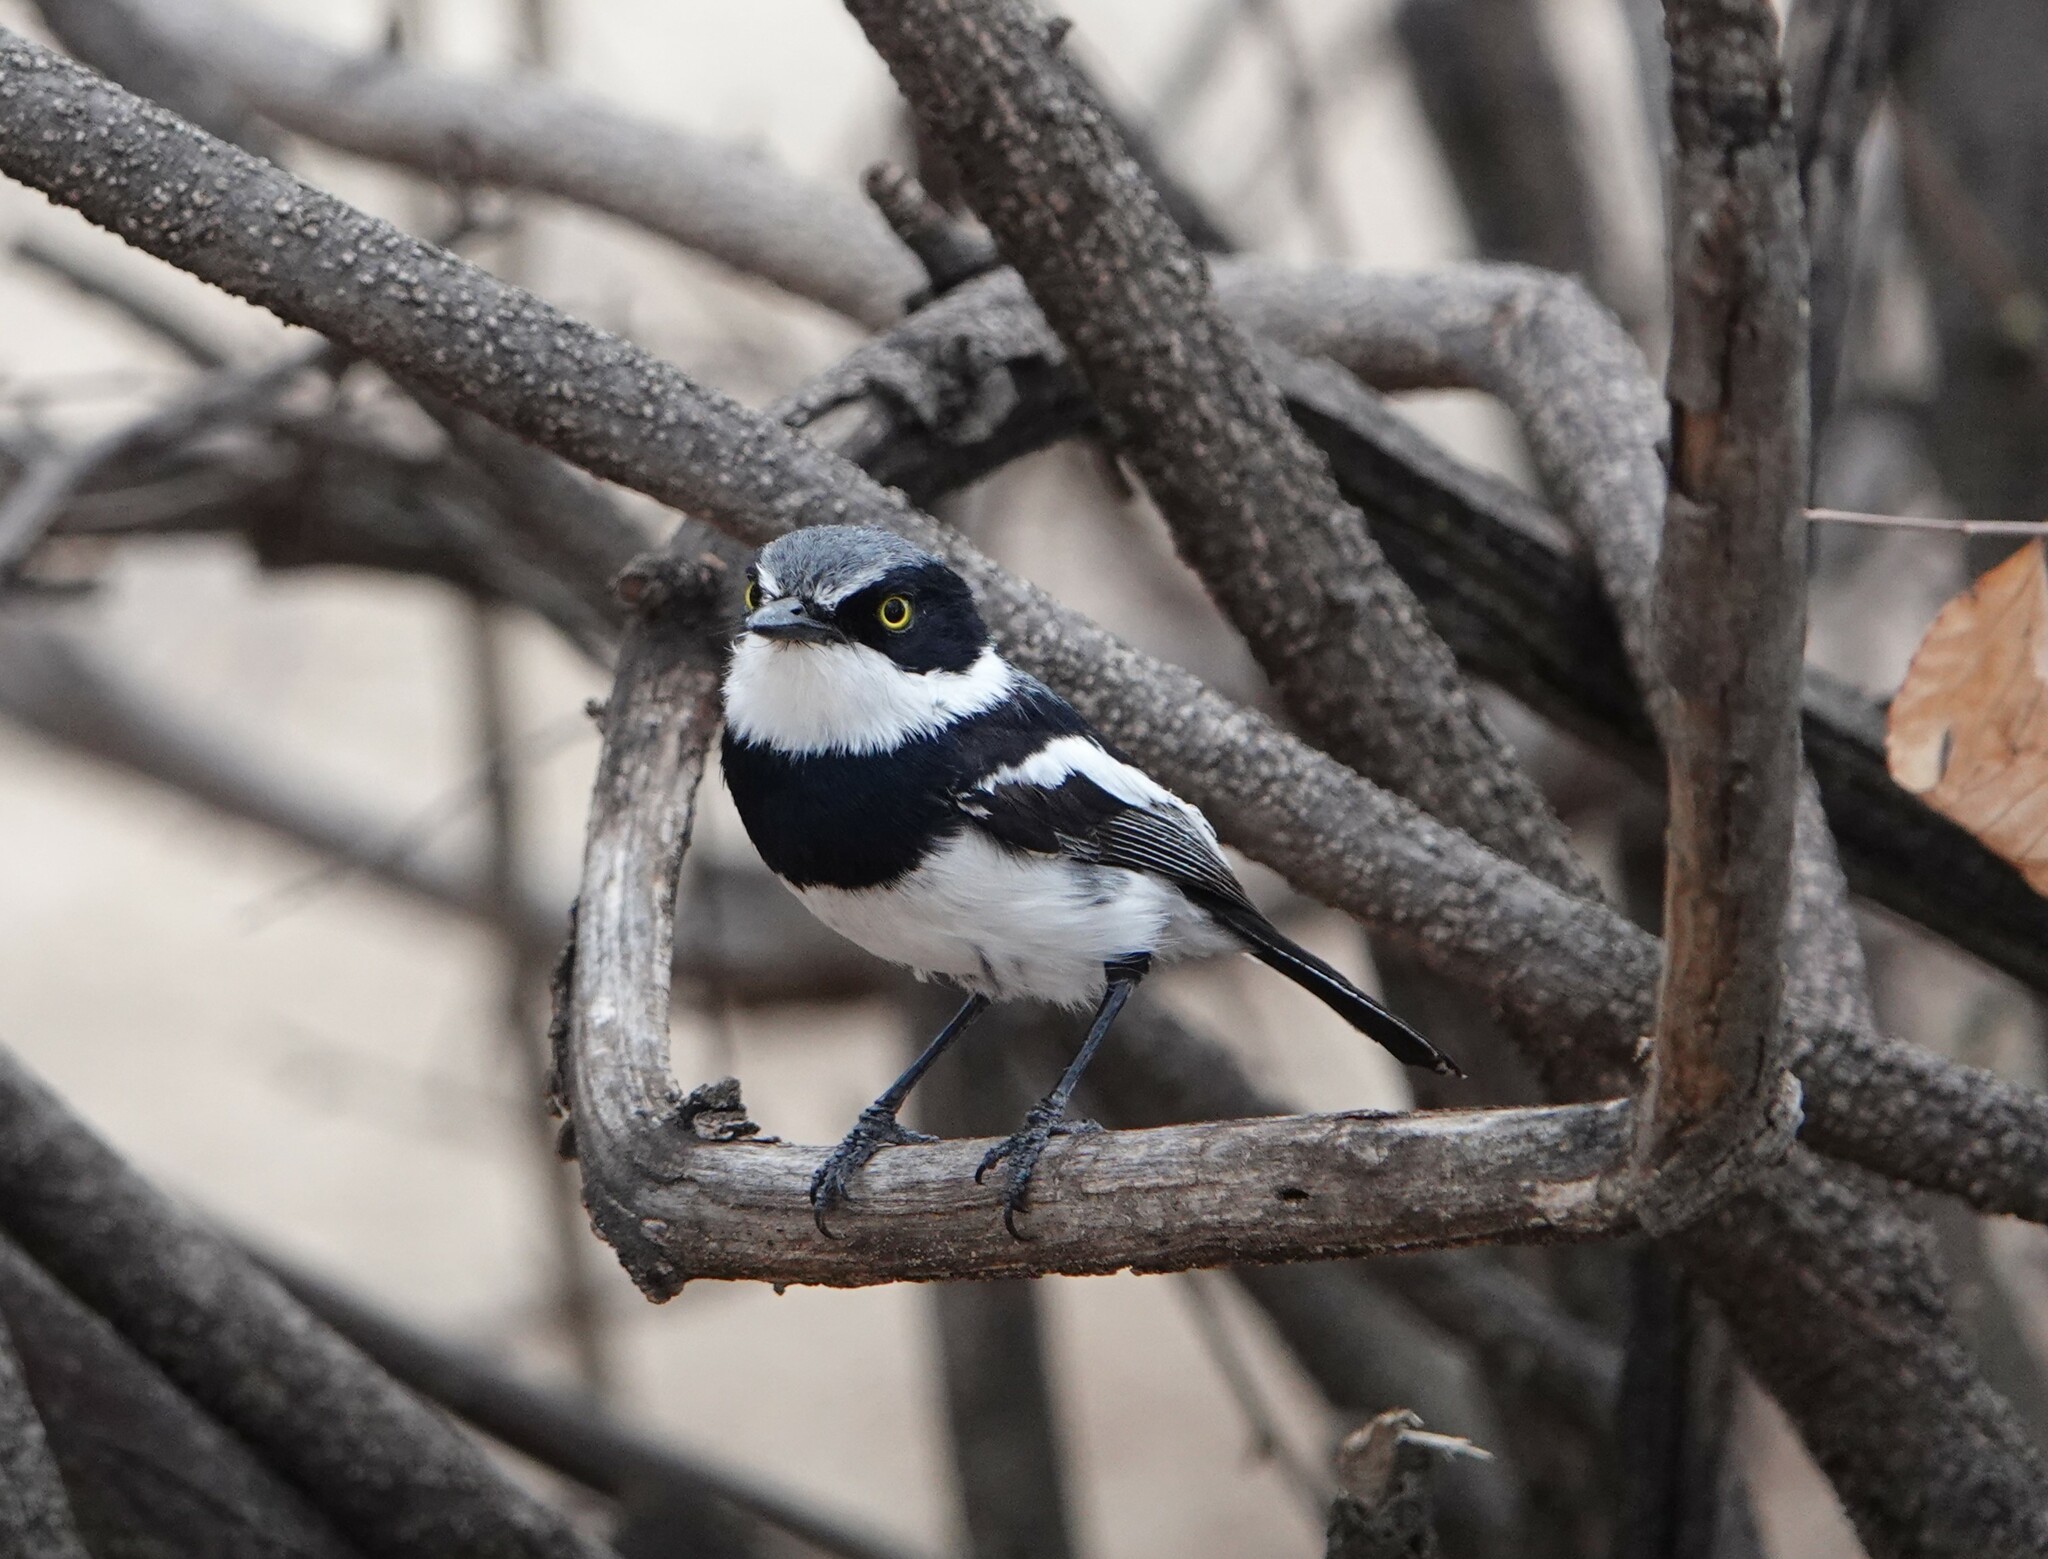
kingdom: Animalia
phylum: Chordata
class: Aves
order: Passeriformes
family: Platysteiridae
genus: Batis
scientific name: Batis pririt
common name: Pririt batis
